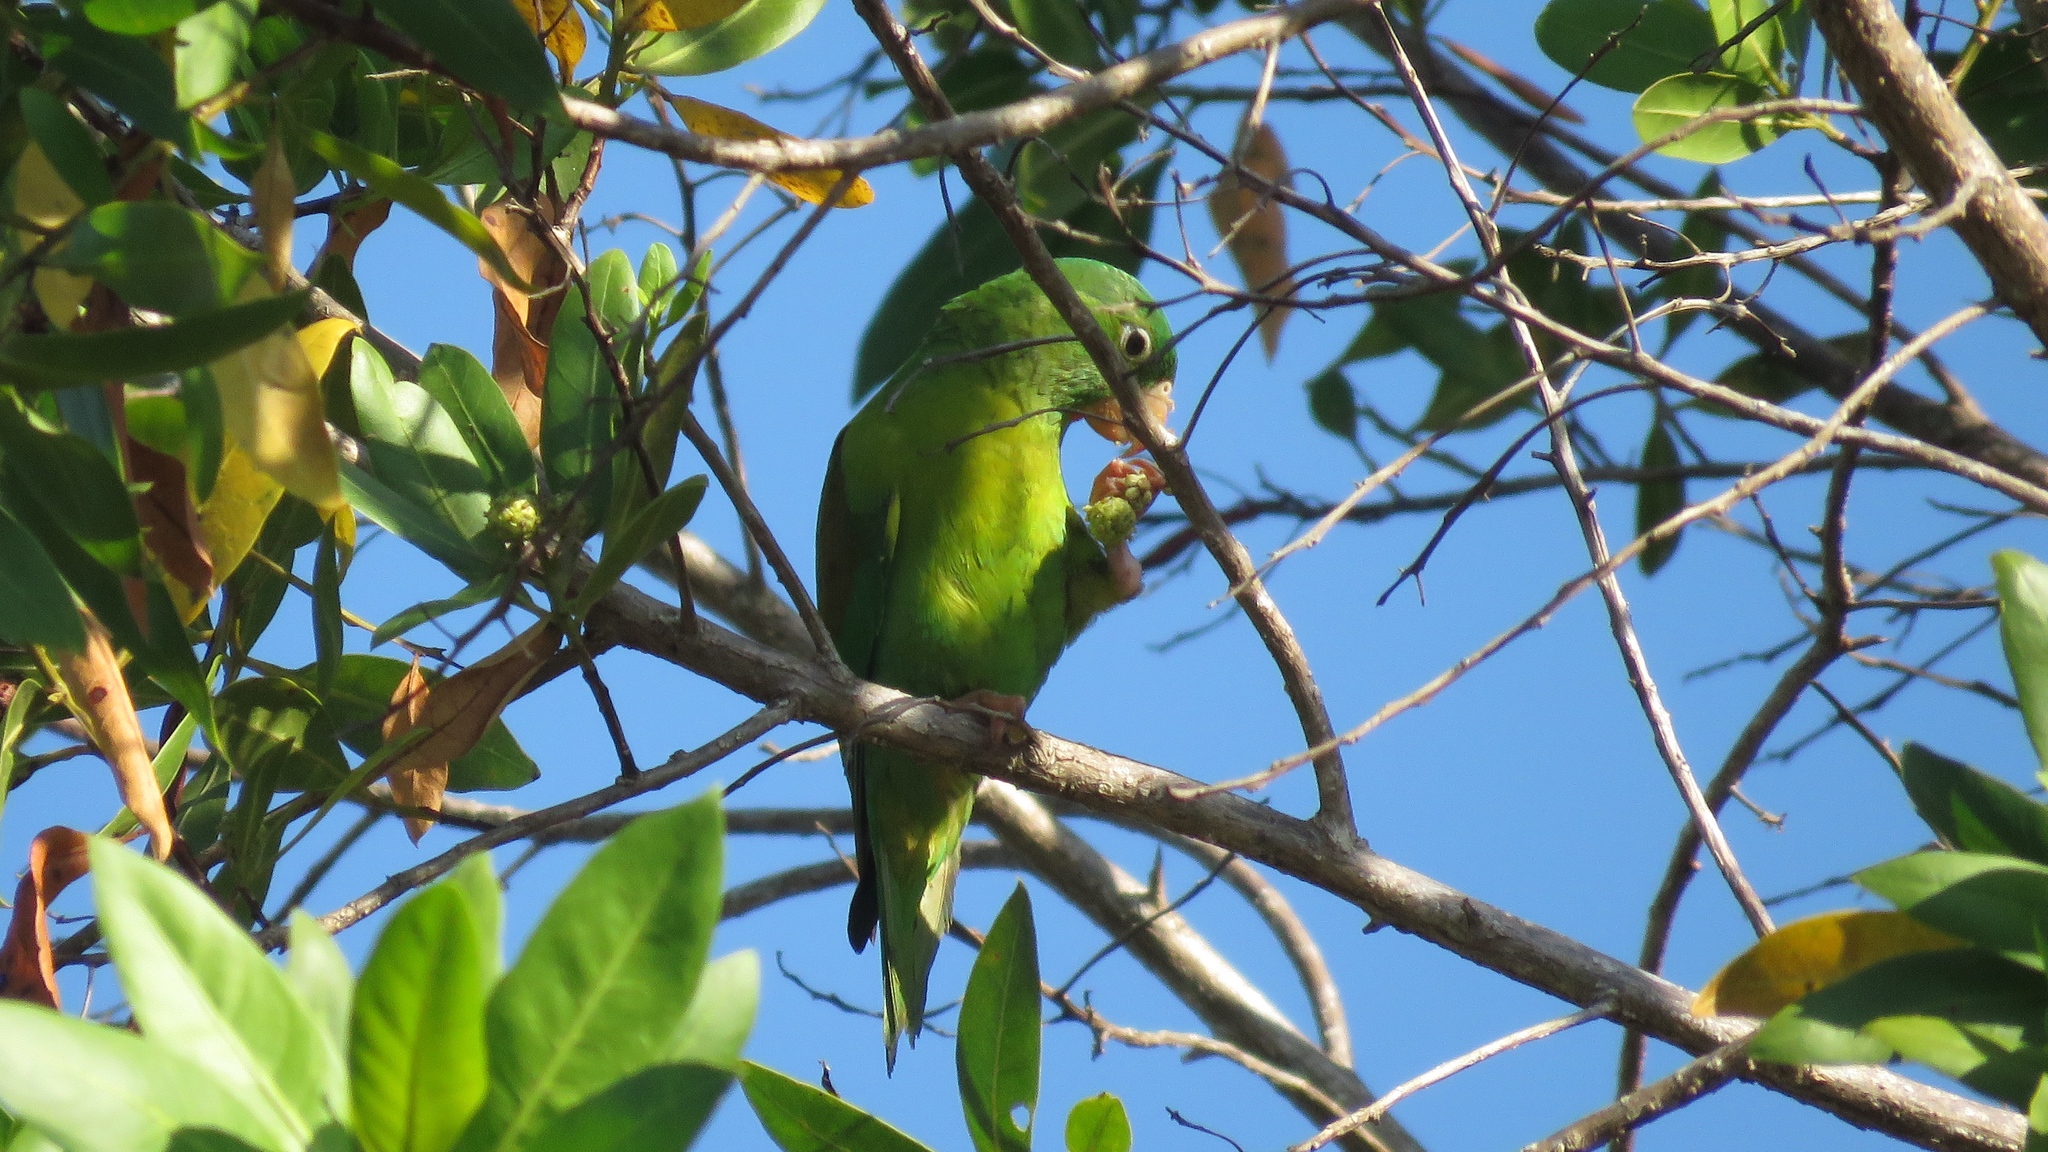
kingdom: Animalia
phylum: Chordata
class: Aves
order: Psittaciformes
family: Psittacidae
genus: Brotogeris
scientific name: Brotogeris jugularis
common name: Orange-chinned parakeet
